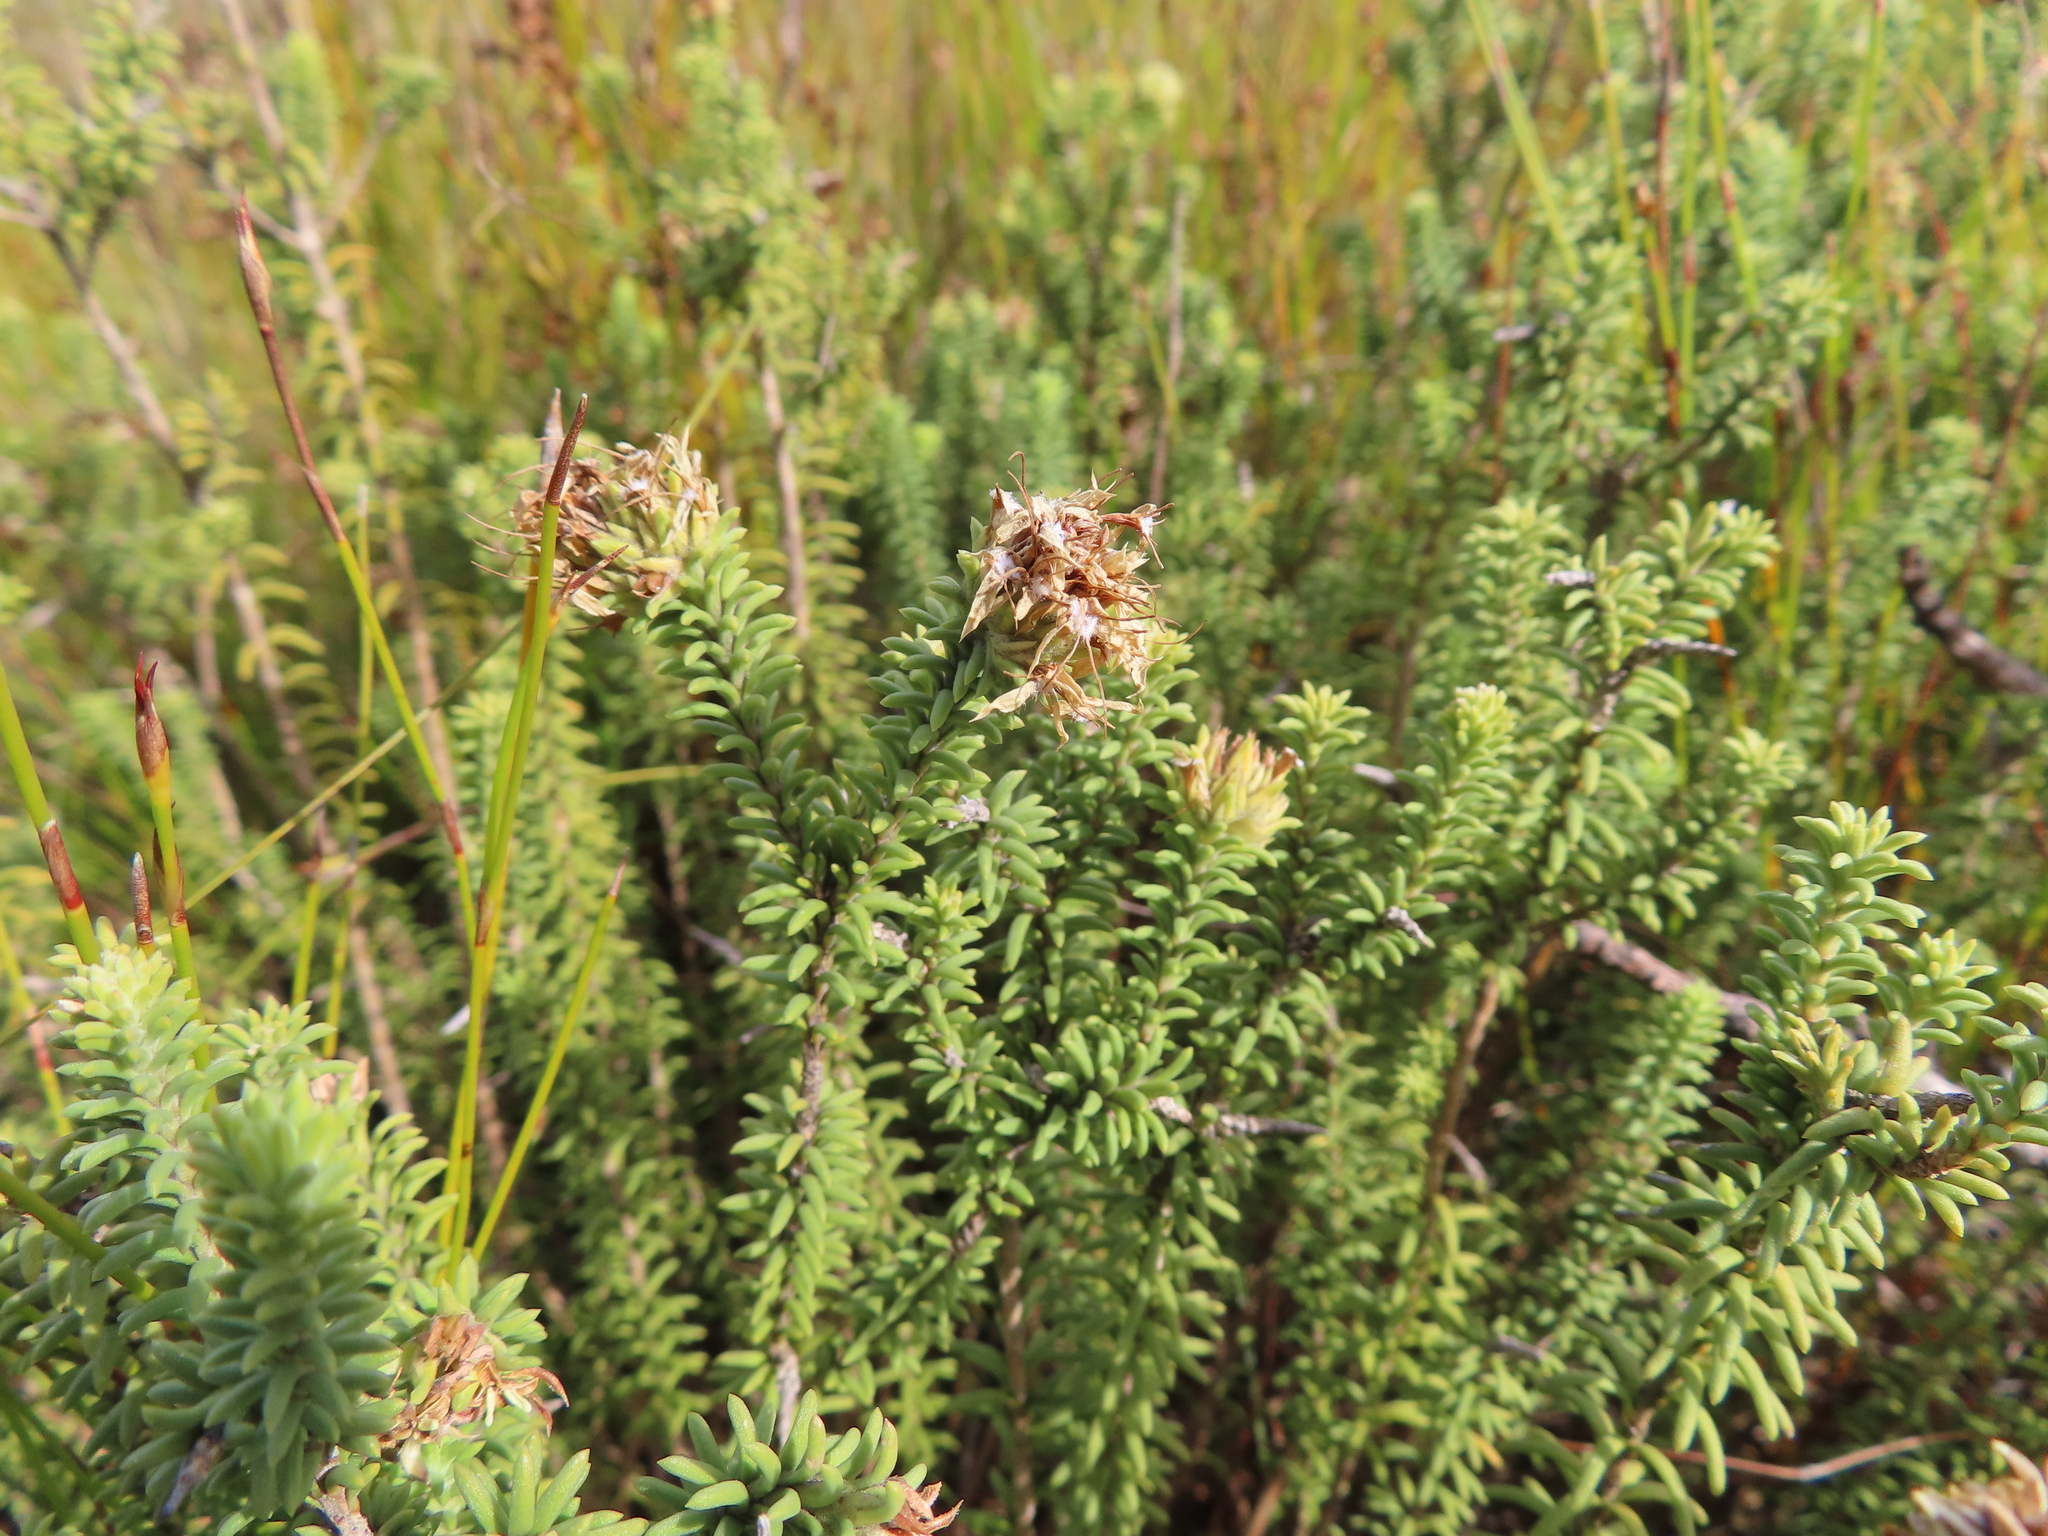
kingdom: Plantae
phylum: Tracheophyta
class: Magnoliopsida
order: Lamiales
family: Stilbaceae
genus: Campylostachys
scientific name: Campylostachys cernua
